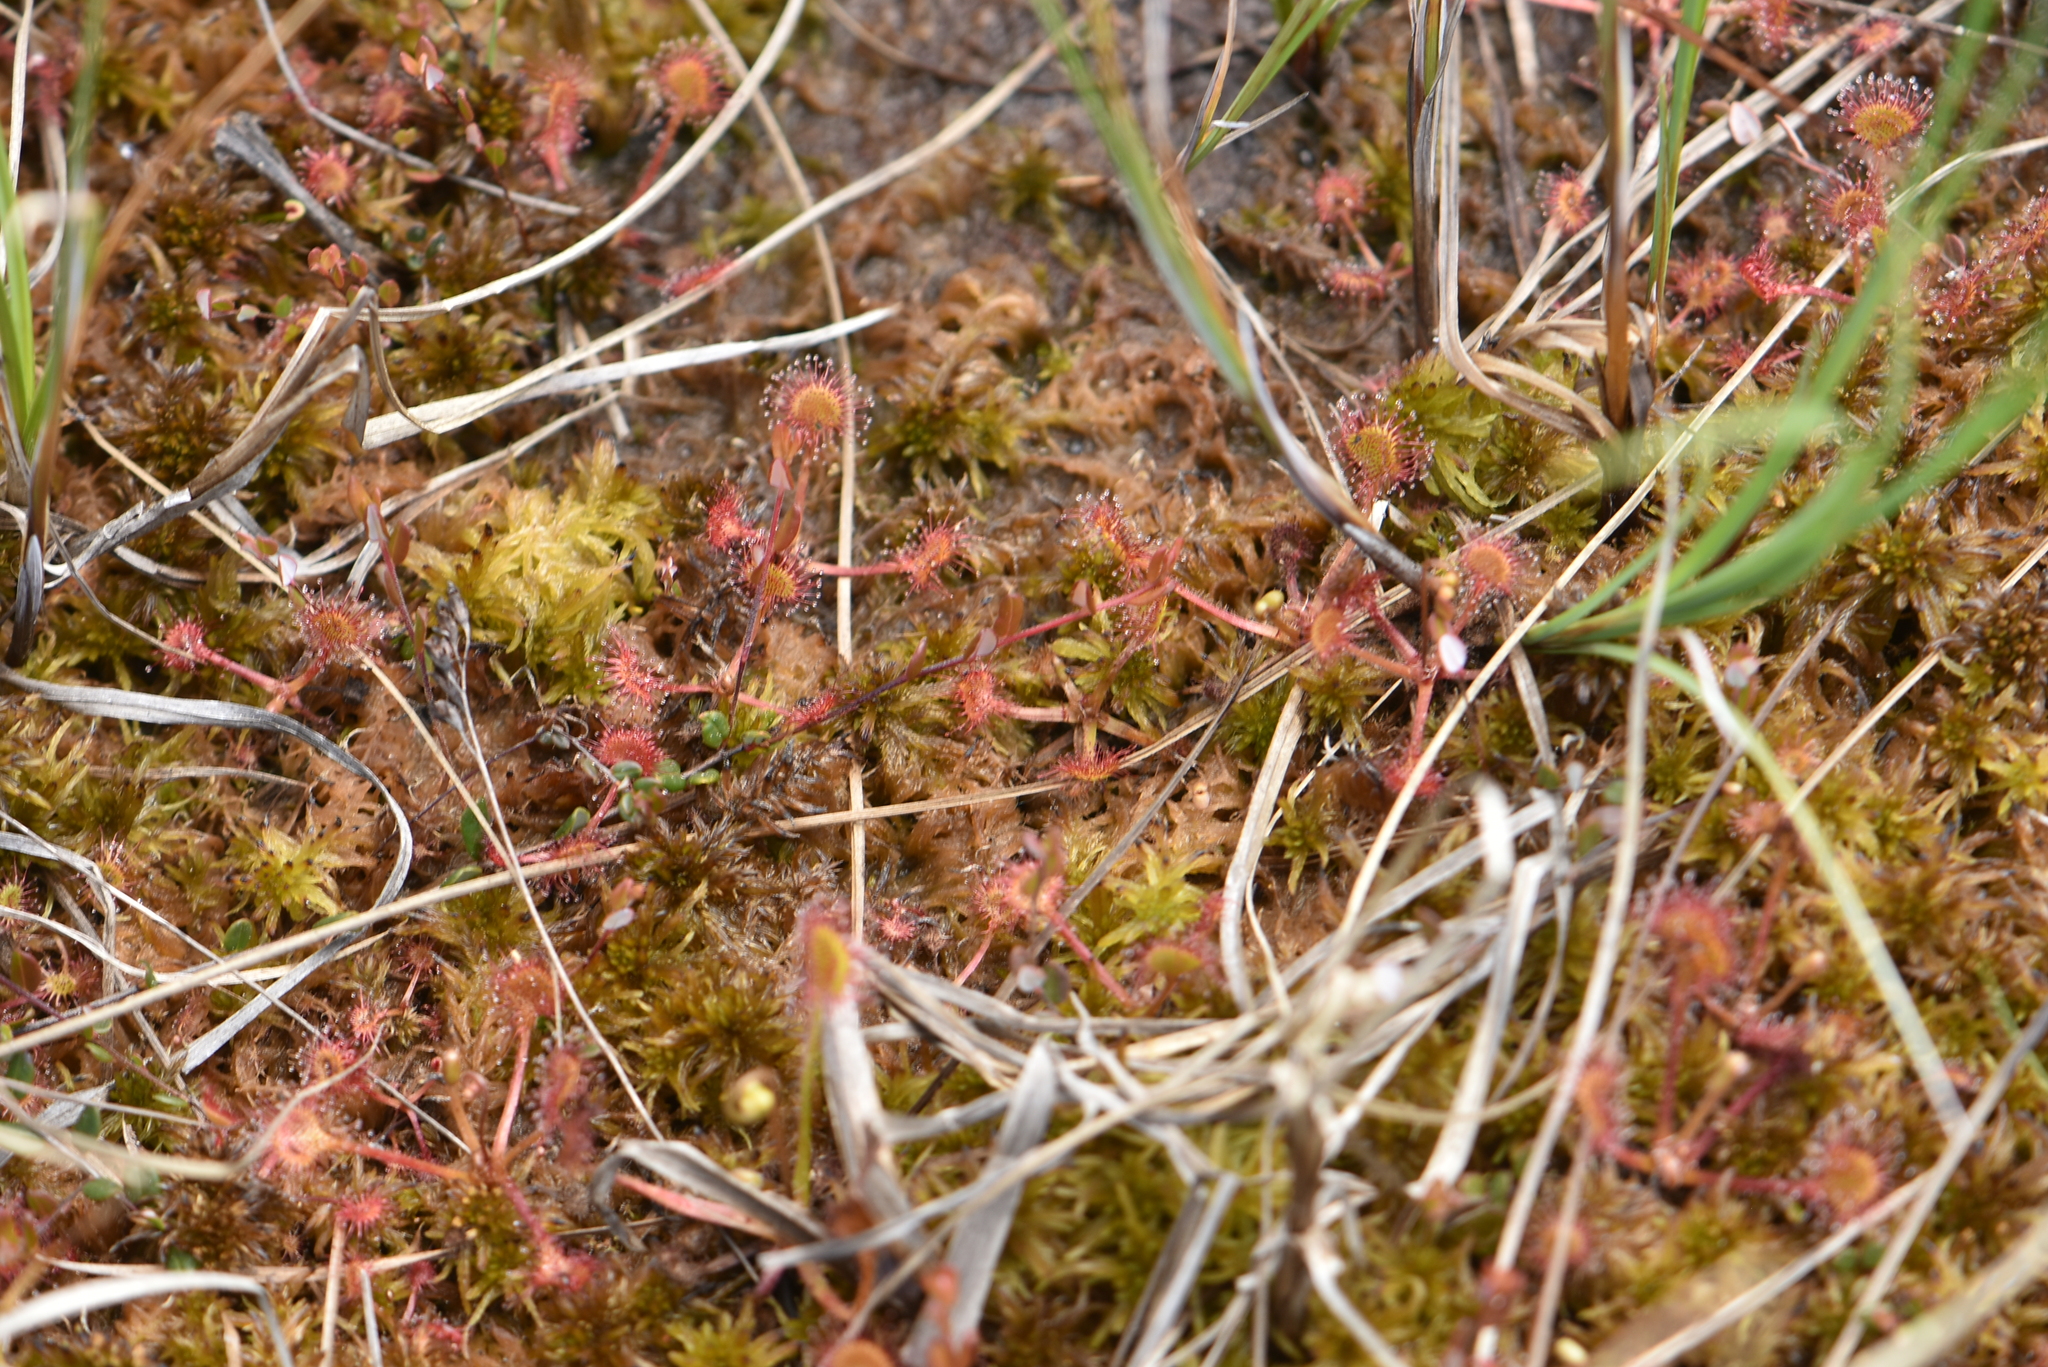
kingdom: Plantae
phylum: Tracheophyta
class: Magnoliopsida
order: Caryophyllales
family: Droseraceae
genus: Drosera
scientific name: Drosera rotundifolia
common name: Round-leaved sundew
